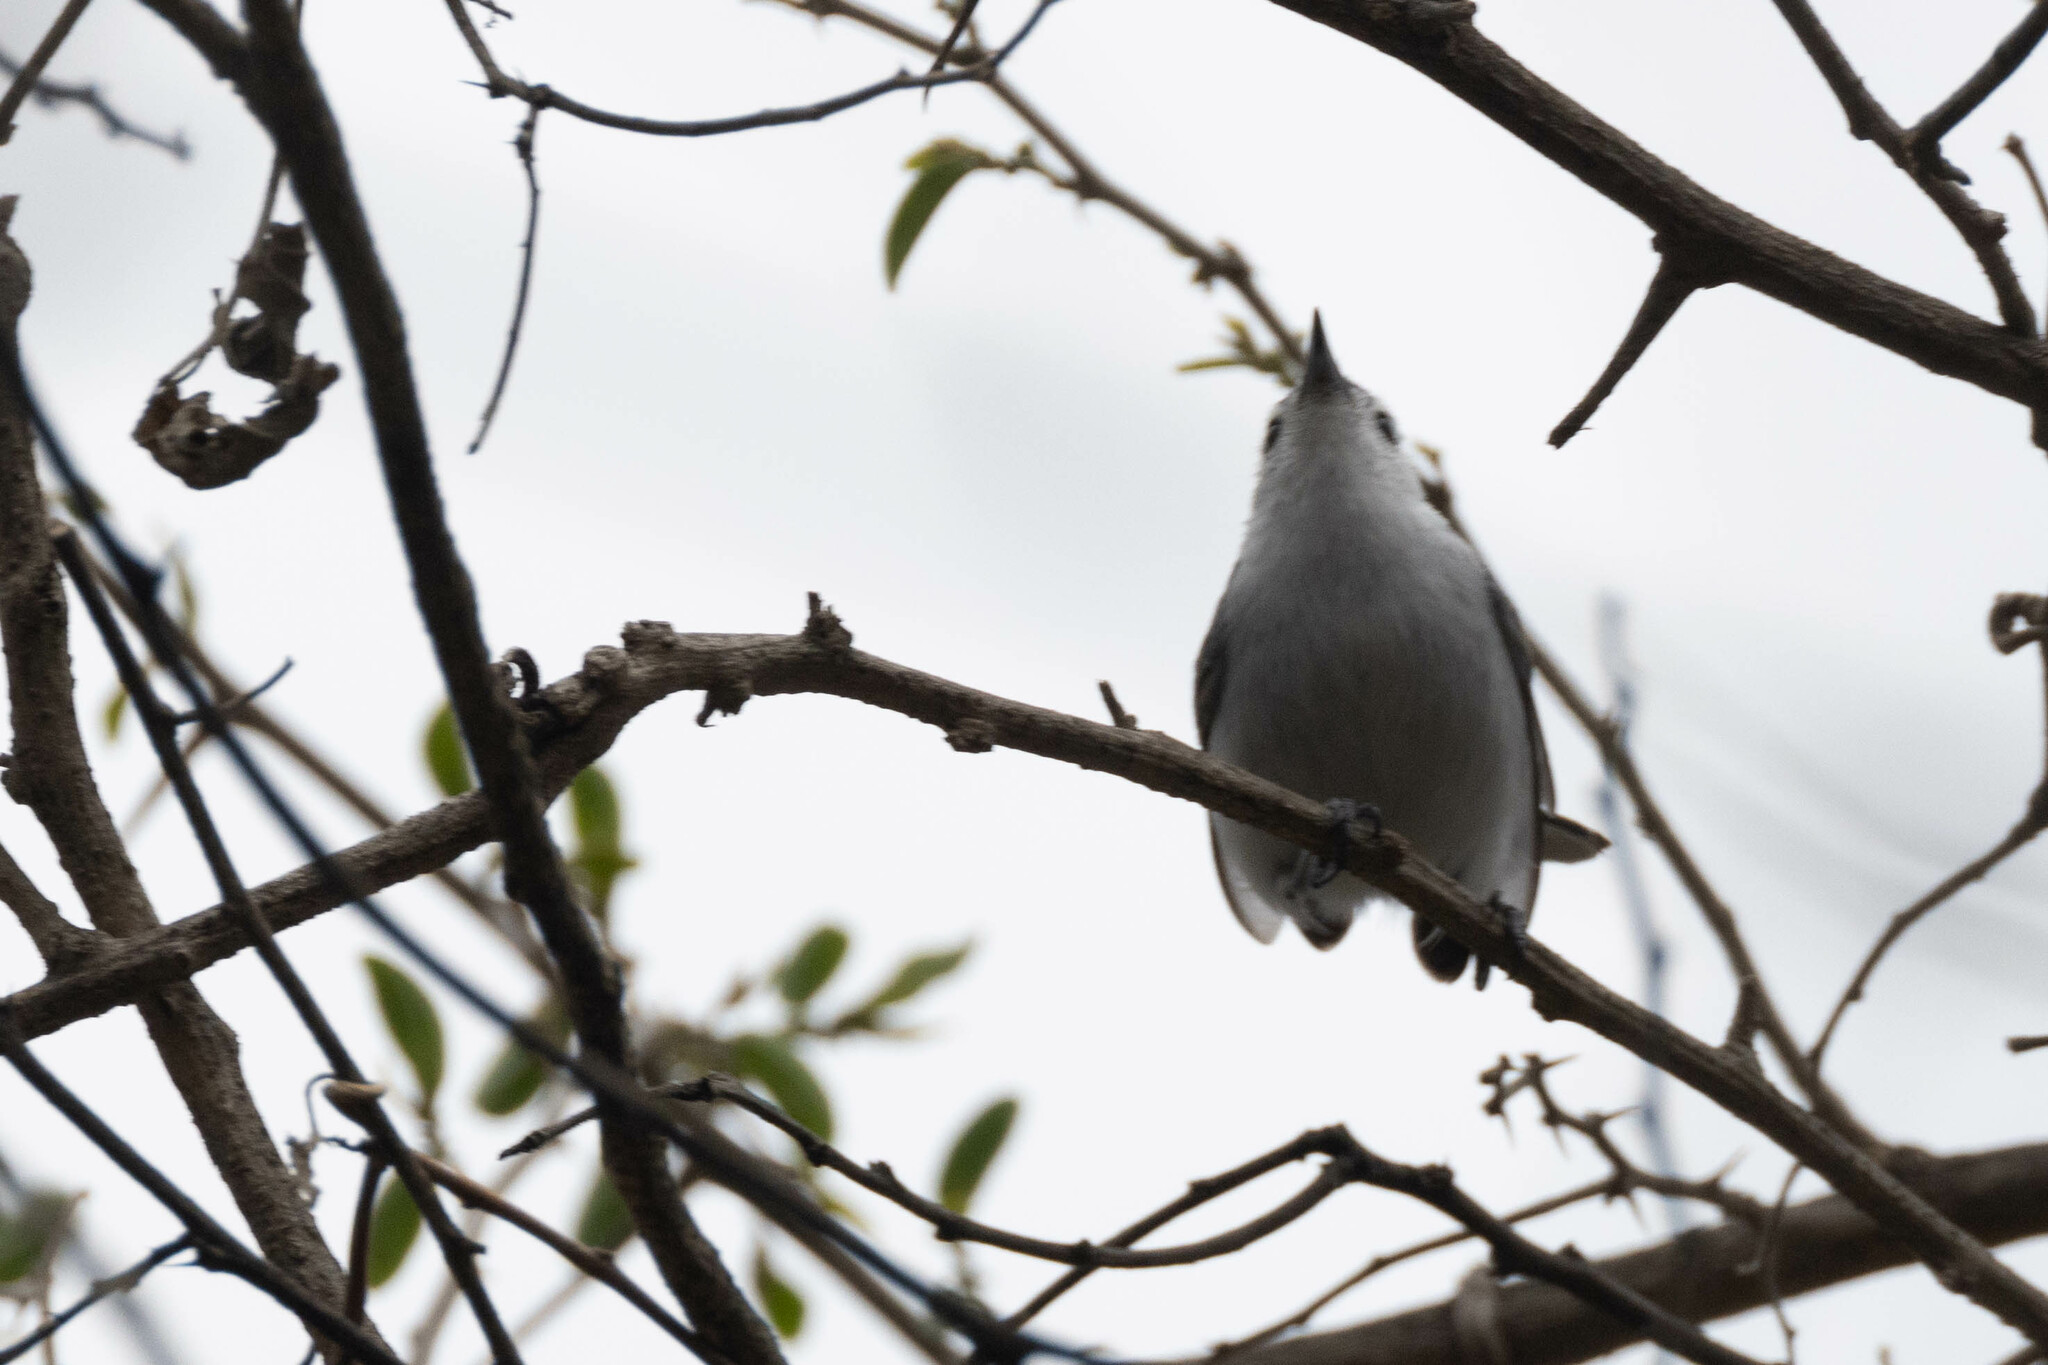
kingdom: Animalia
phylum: Chordata
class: Aves
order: Passeriformes
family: Polioptilidae
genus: Polioptila
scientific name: Polioptila plumbea
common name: Tropical gnatcatcher
